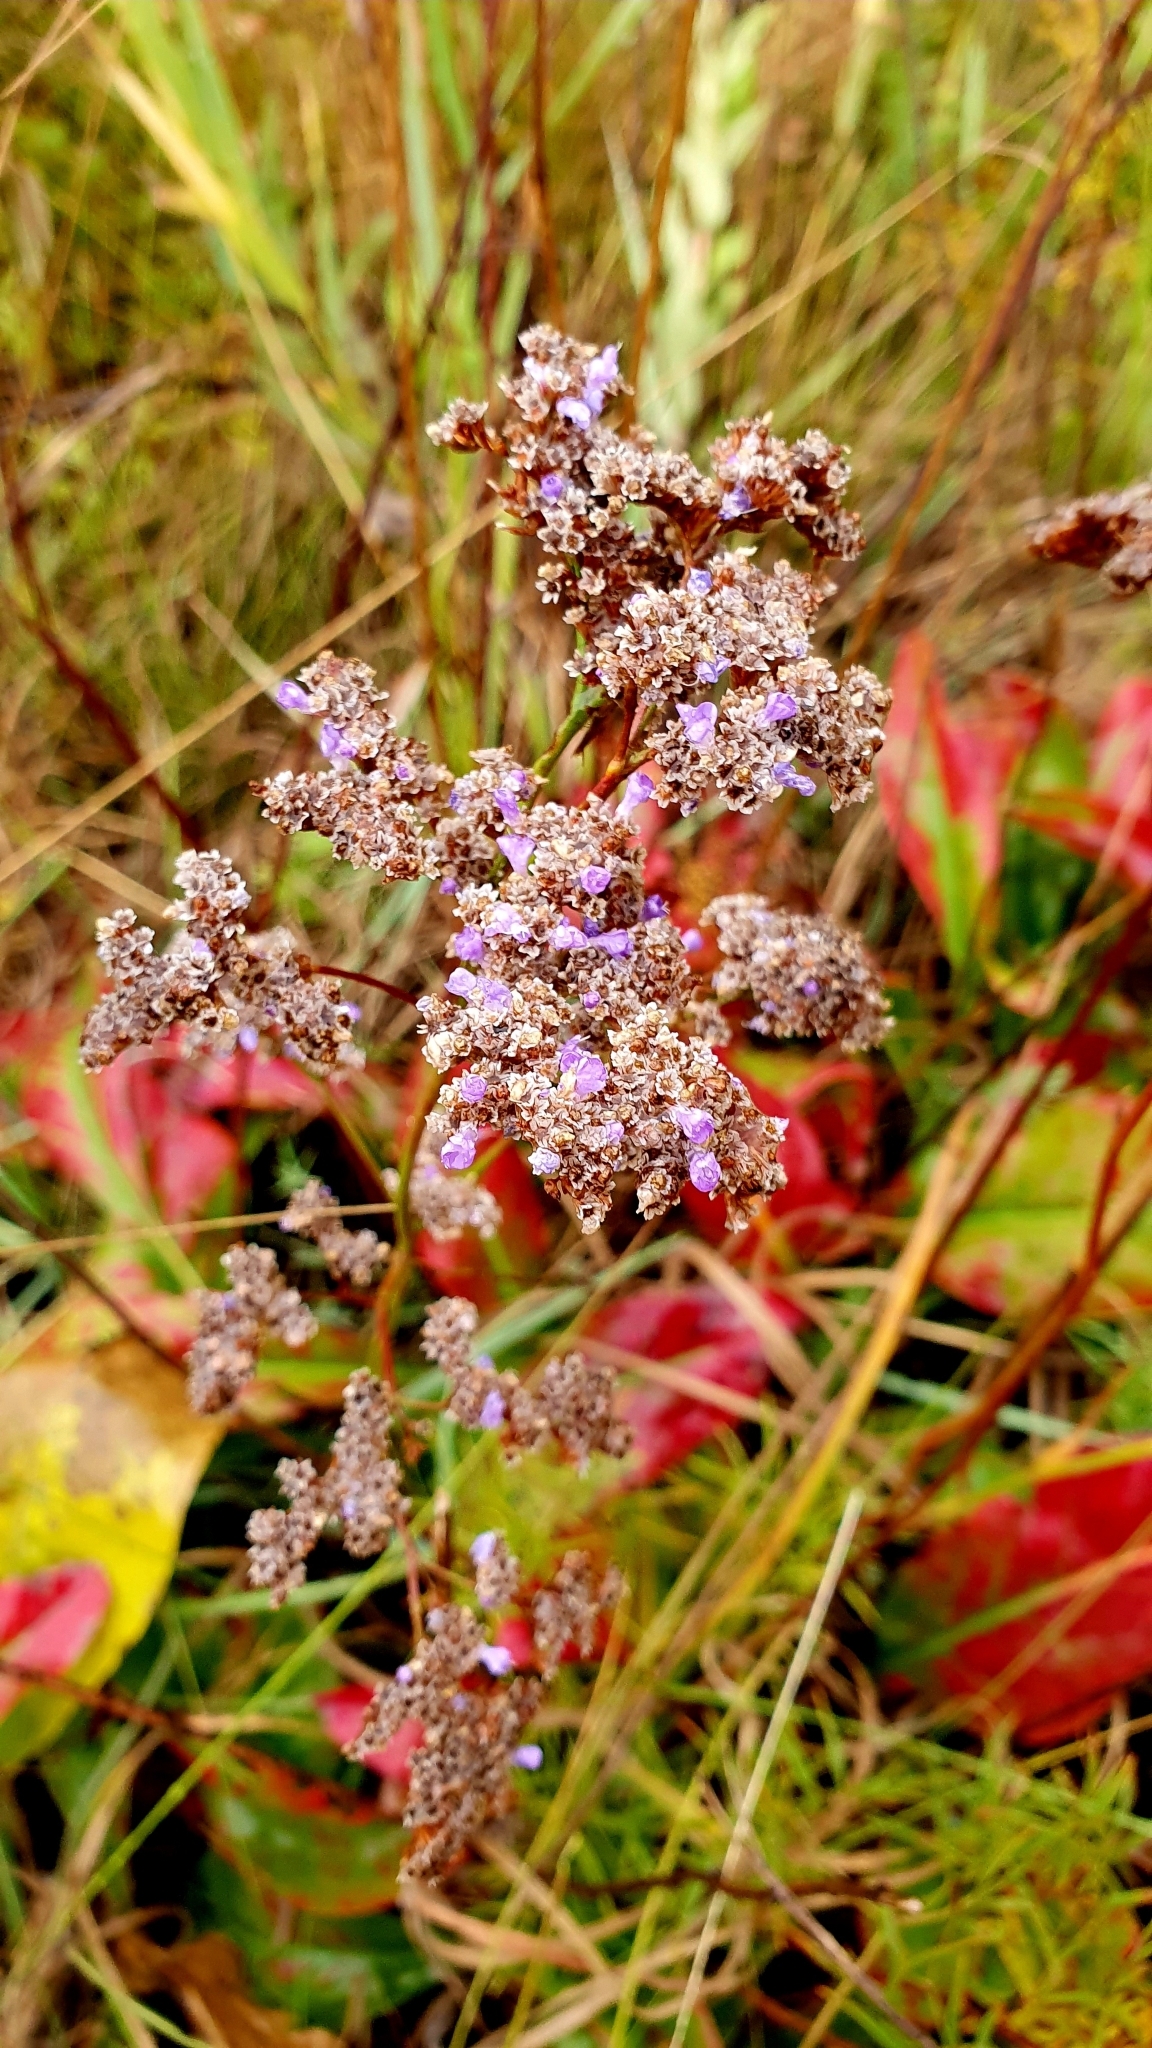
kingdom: Plantae
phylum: Tracheophyta
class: Magnoliopsida
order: Caryophyllales
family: Plumbaginaceae
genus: Limonium
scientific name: Limonium gmelini
